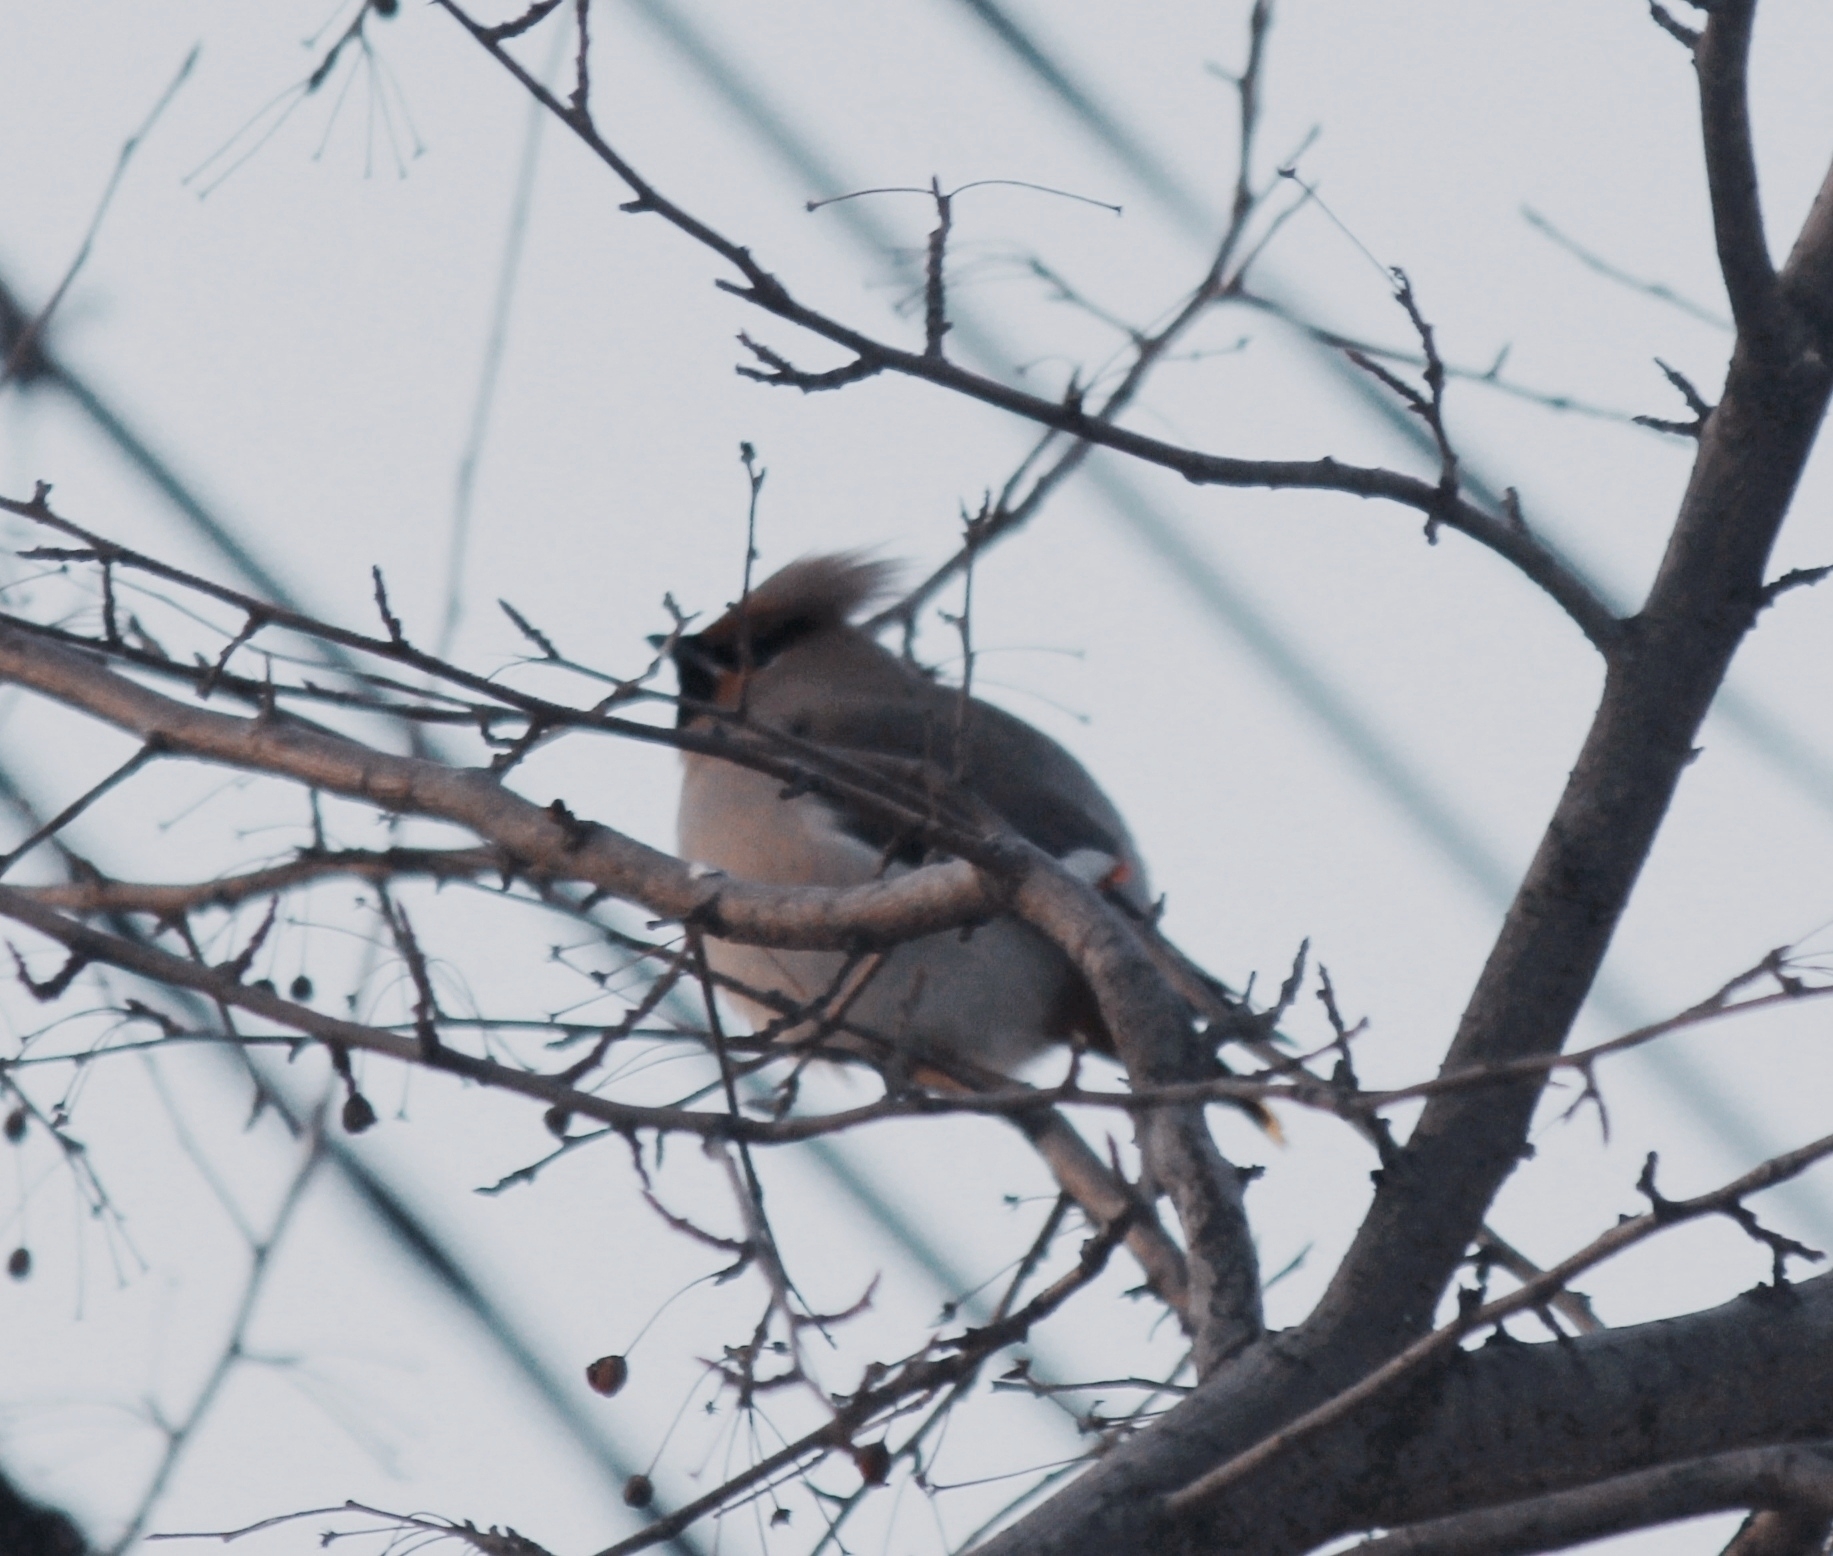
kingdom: Animalia
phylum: Chordata
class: Aves
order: Passeriformes
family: Bombycillidae
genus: Bombycilla
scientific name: Bombycilla garrulus
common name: Bohemian waxwing
